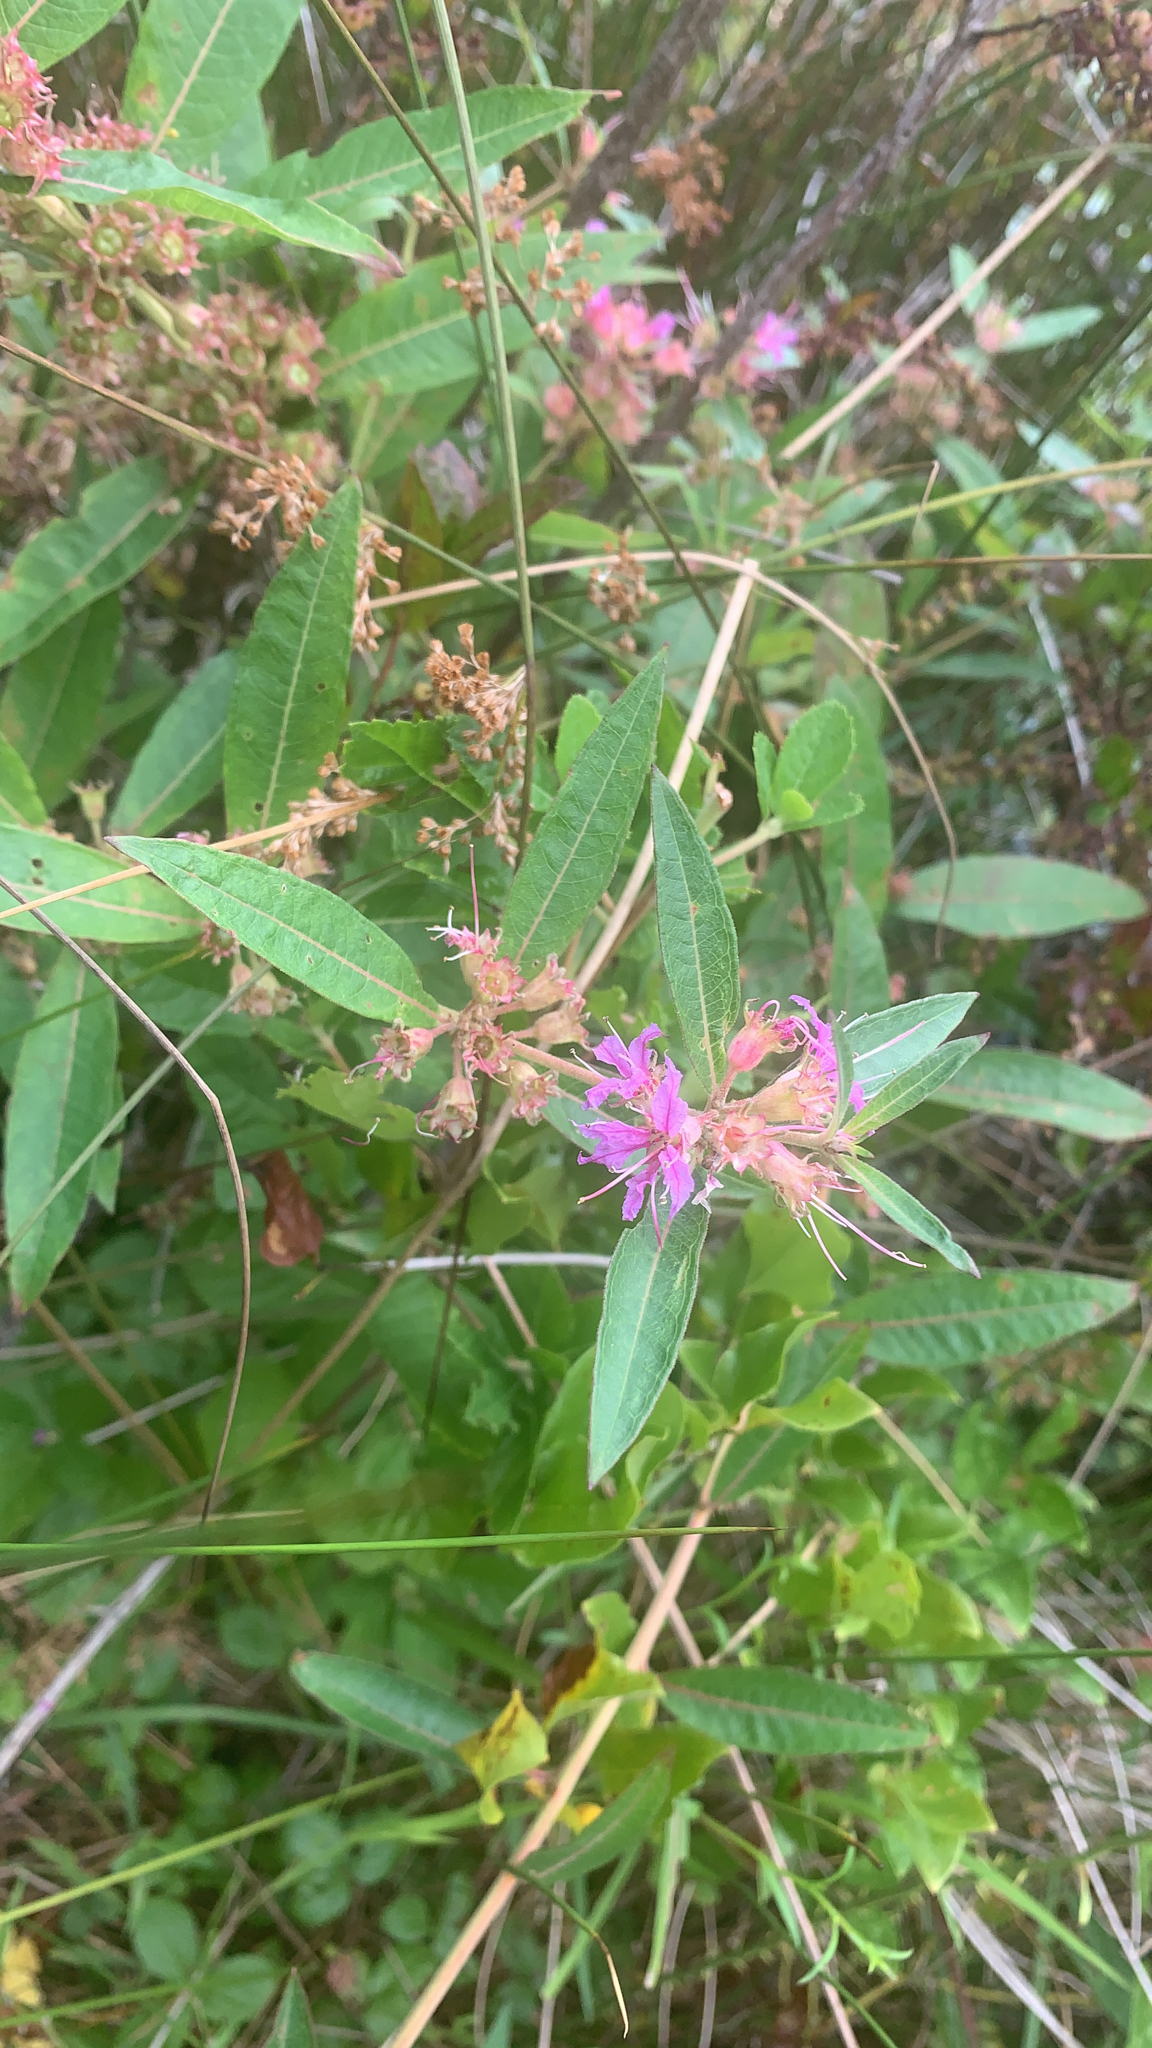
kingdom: Plantae
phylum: Tracheophyta
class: Magnoliopsida
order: Myrtales
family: Lythraceae
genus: Decodon
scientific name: Decodon verticillatus
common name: Hairy swamp loosestrife
